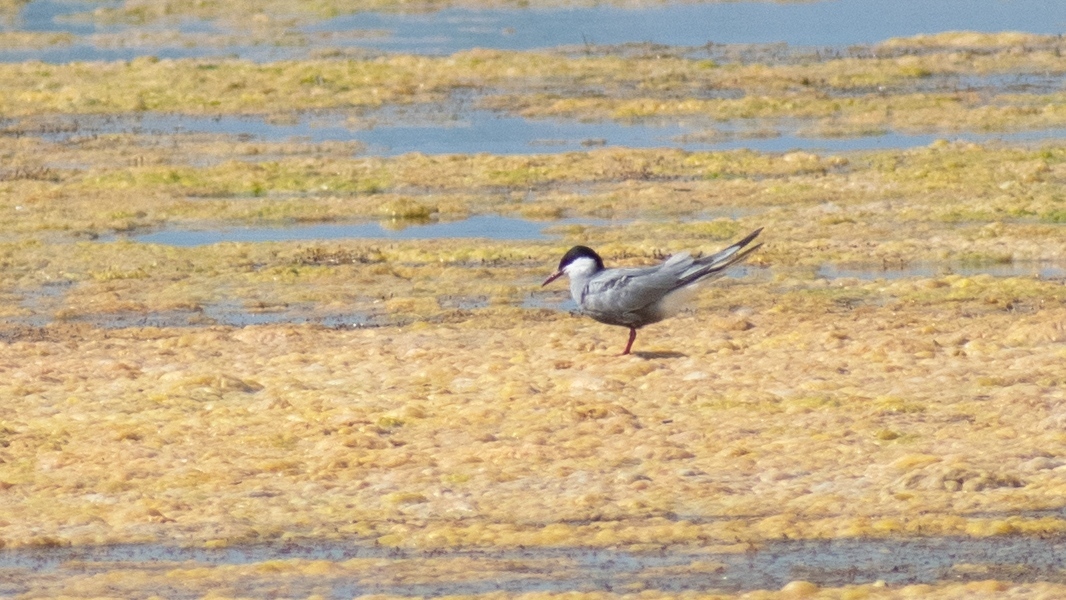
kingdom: Animalia
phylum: Chordata
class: Aves
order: Charadriiformes
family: Laridae
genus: Chlidonias
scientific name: Chlidonias hybrida
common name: Whiskered tern
